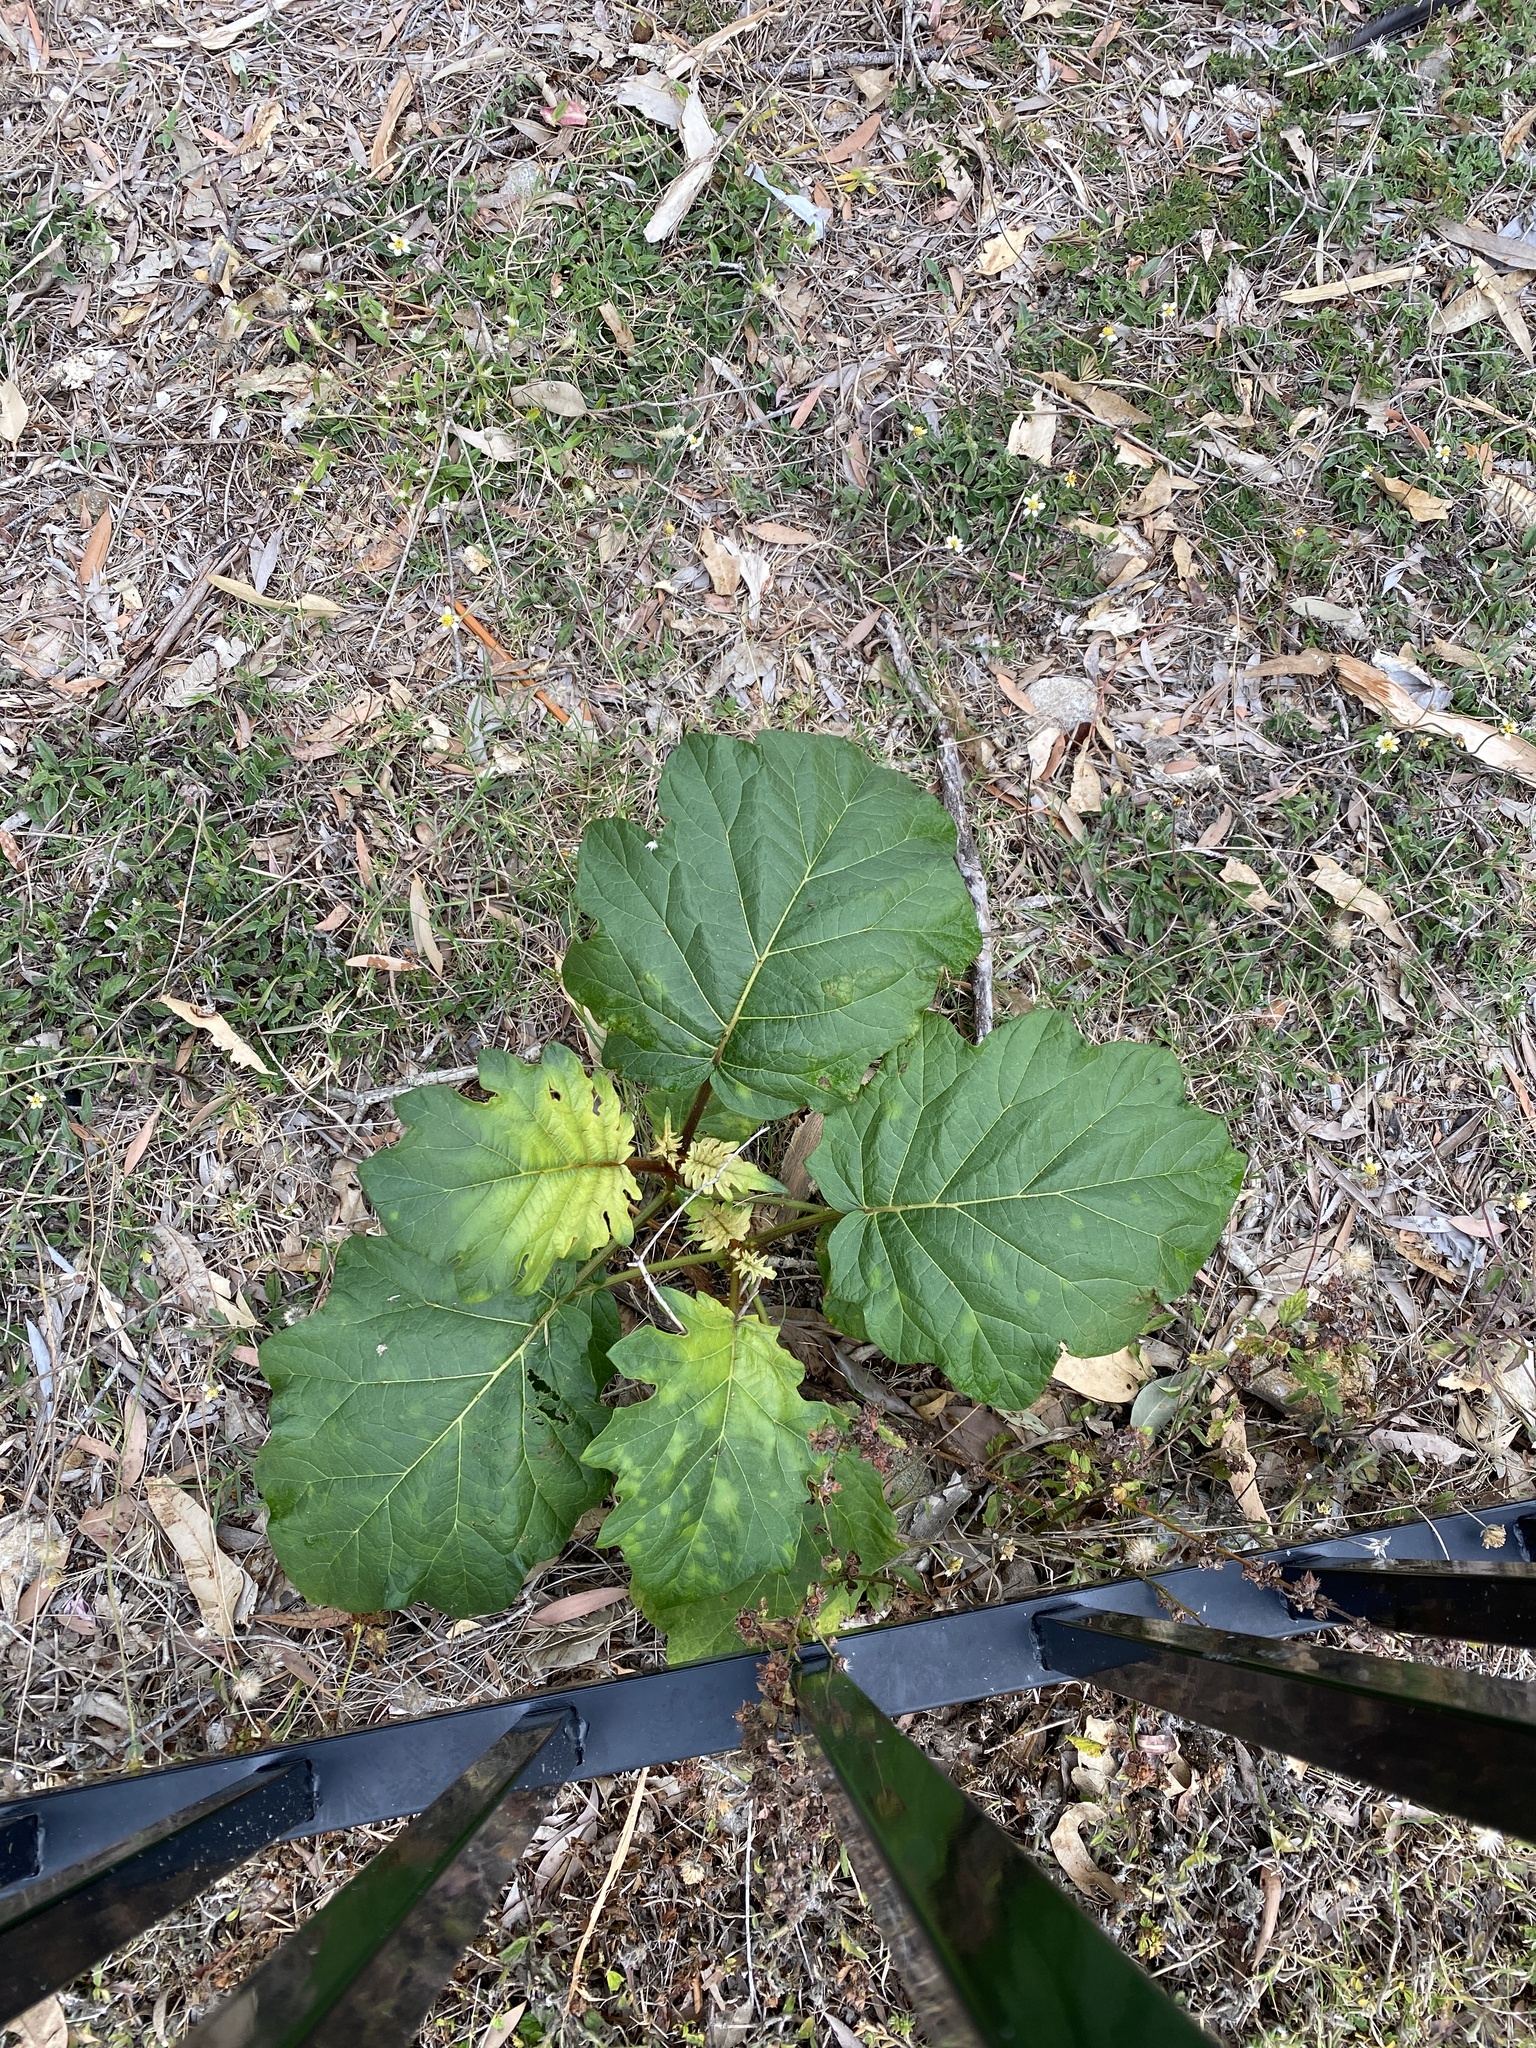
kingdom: Plantae
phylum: Tracheophyta
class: Magnoliopsida
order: Solanales
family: Solanaceae
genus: Solanum
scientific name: Solanum chrysotrichum
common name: Nightshade
